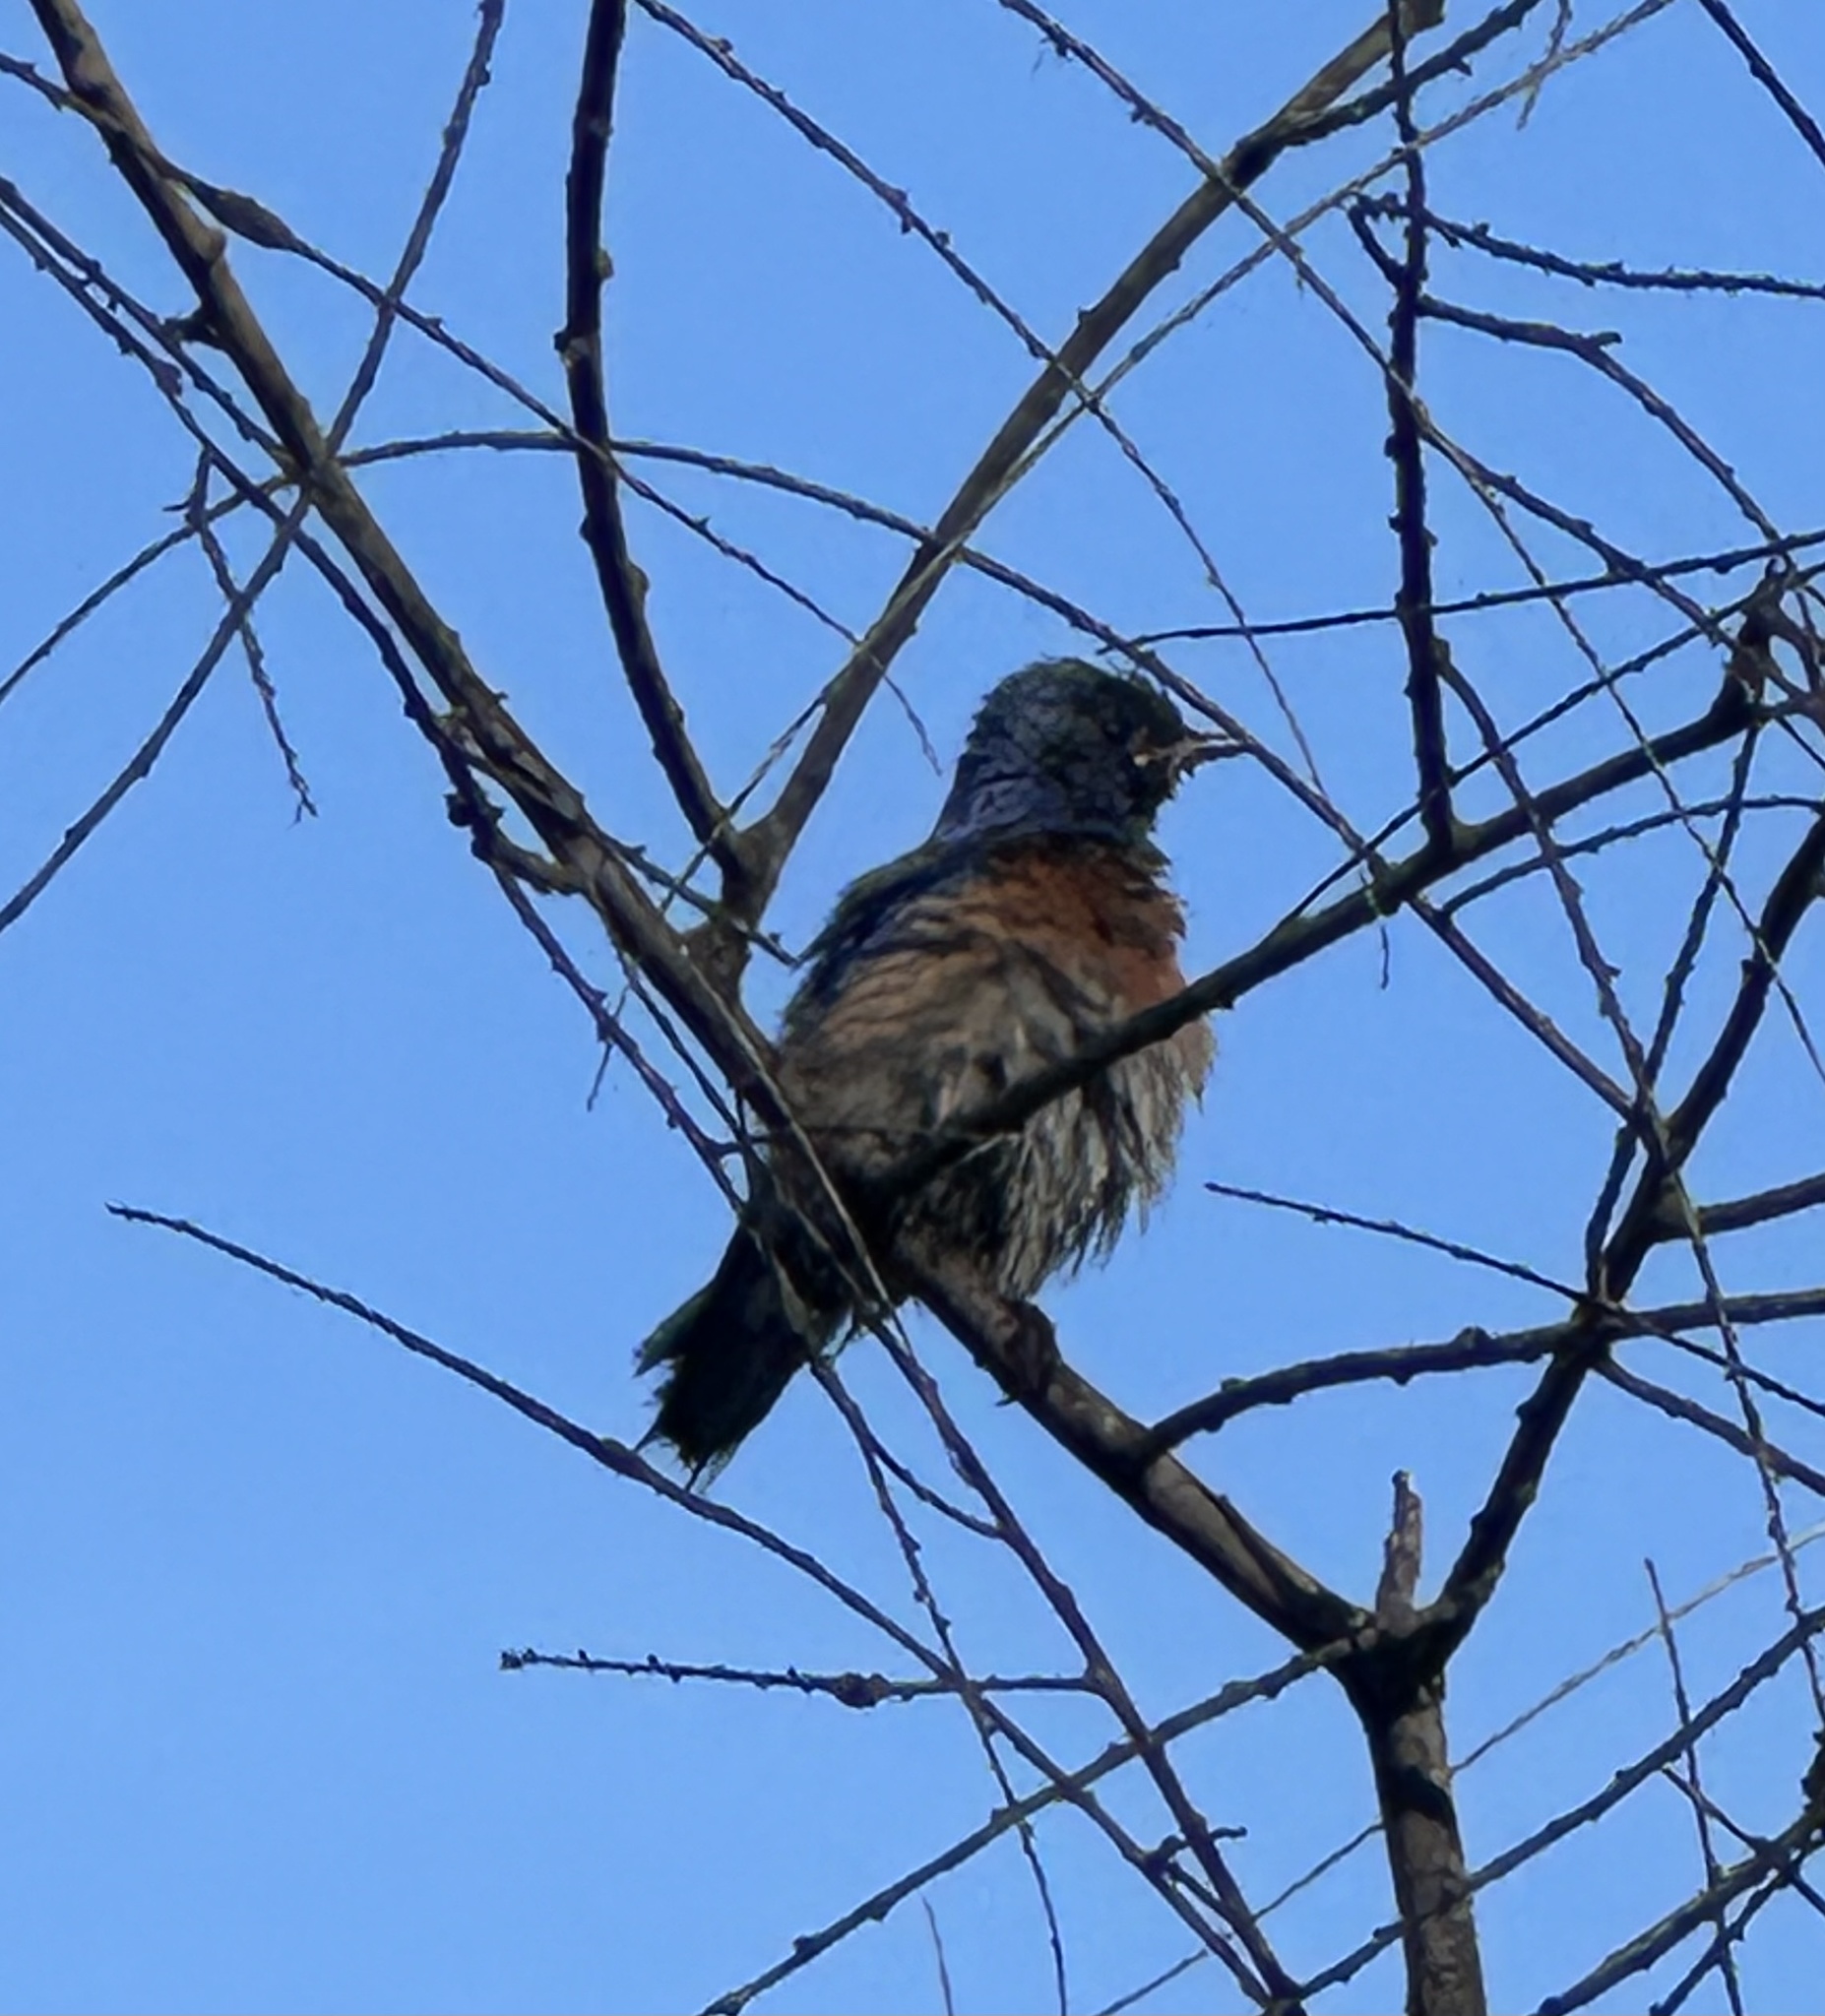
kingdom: Animalia
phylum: Chordata
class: Aves
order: Passeriformes
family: Turdidae
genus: Sialia
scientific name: Sialia mexicana
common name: Western bluebird
